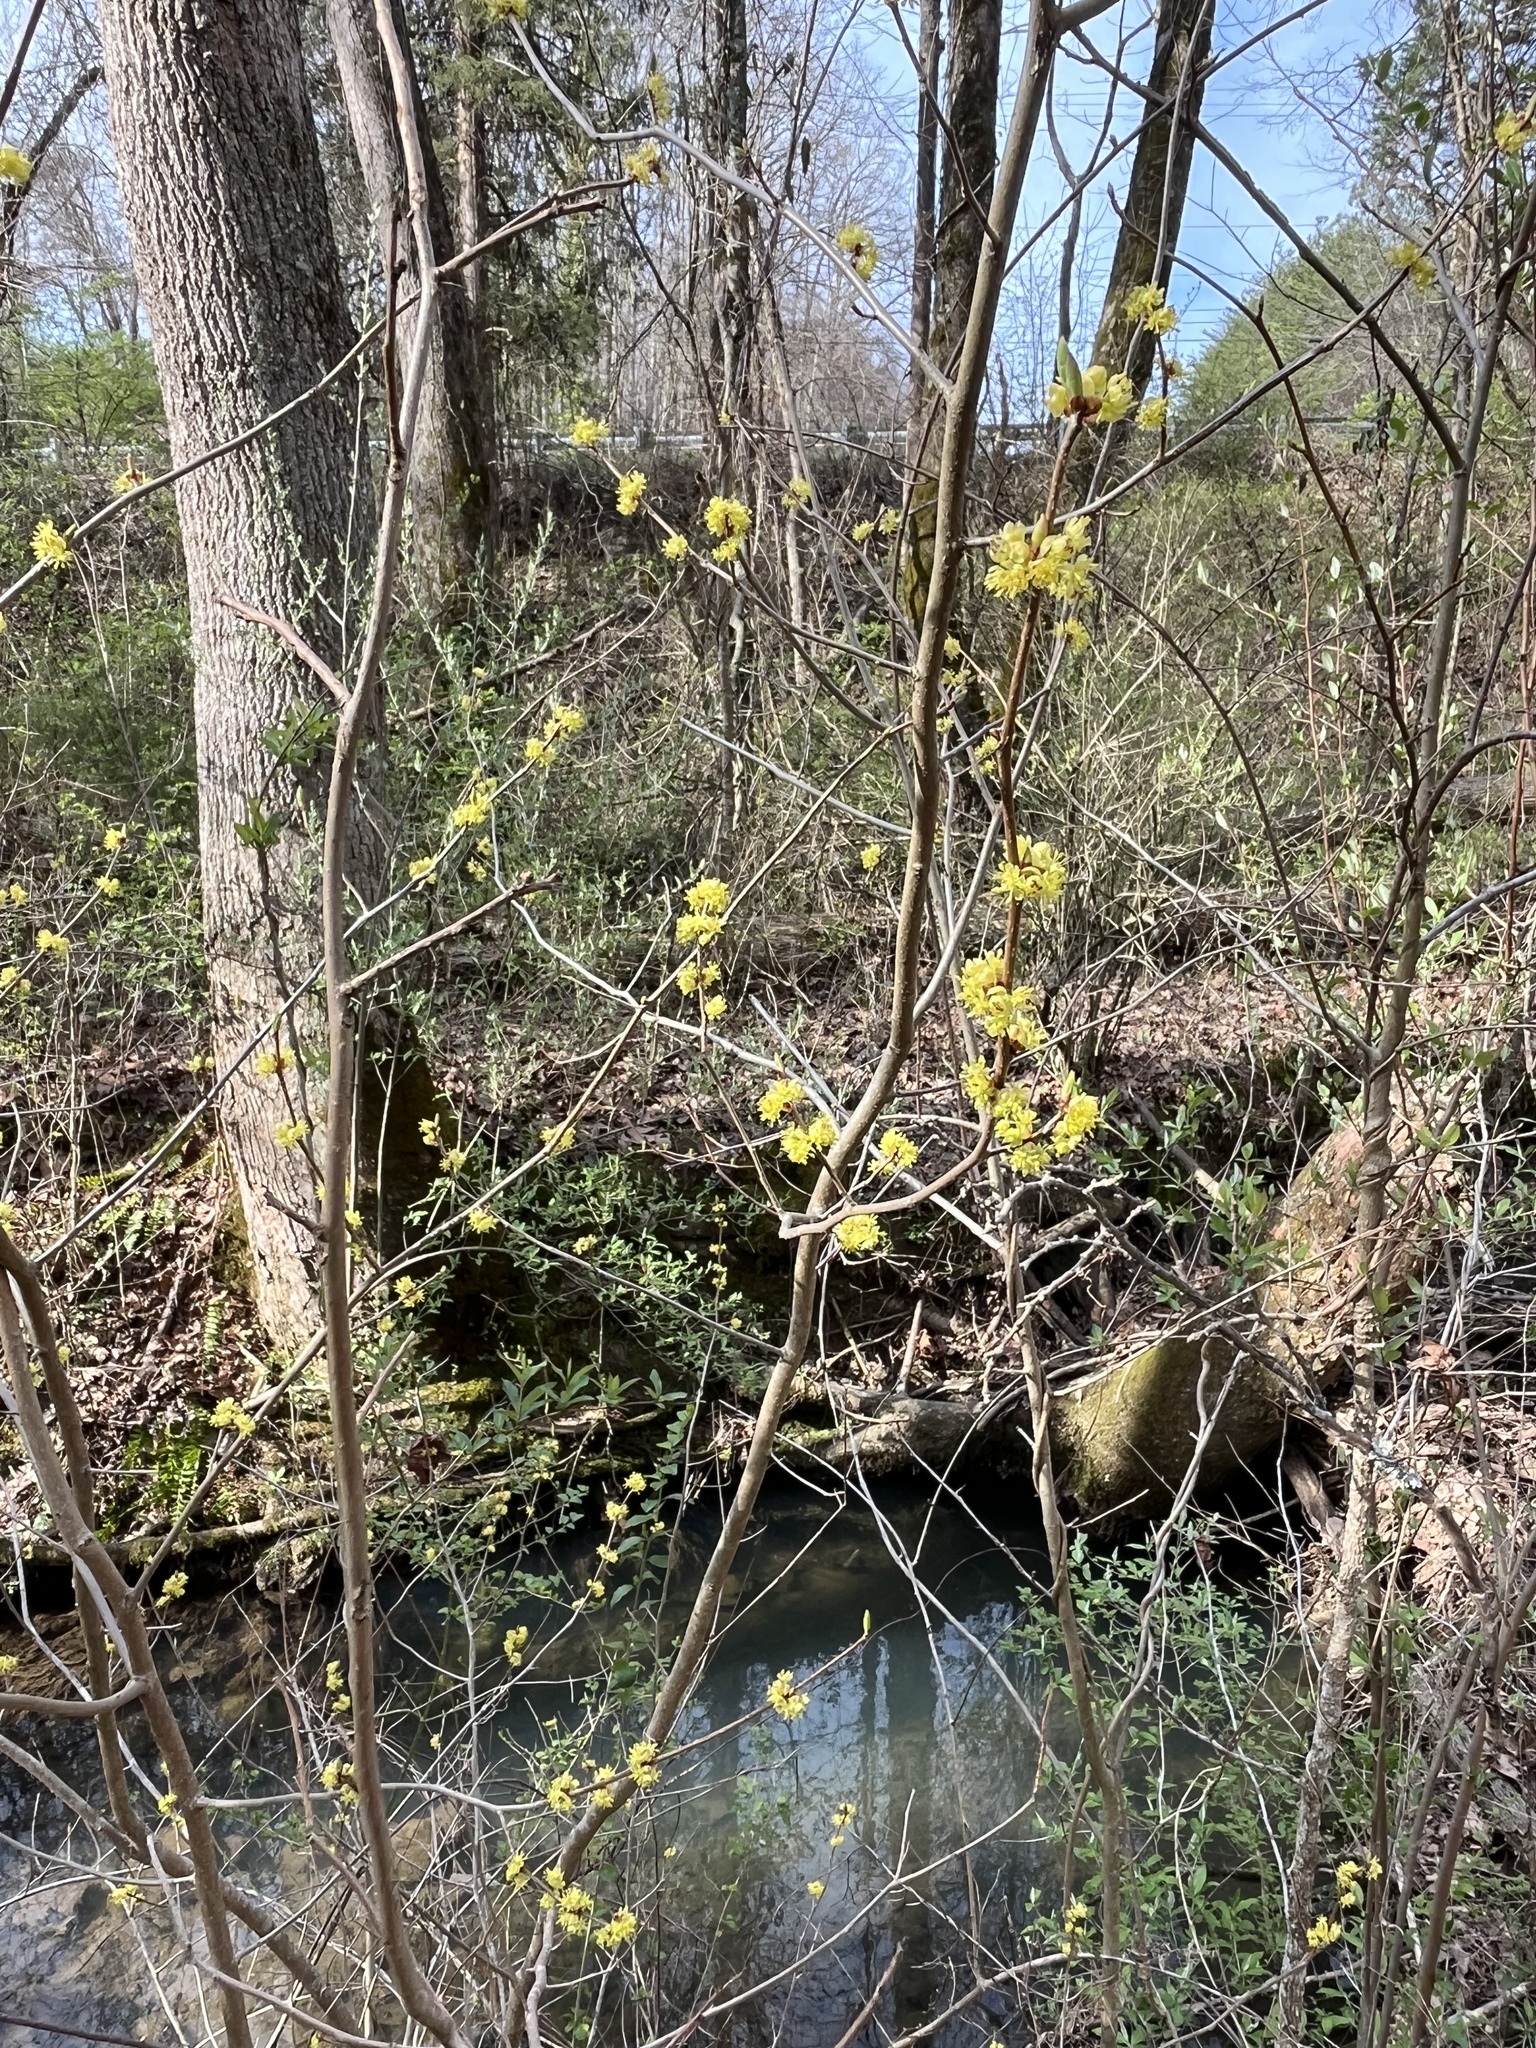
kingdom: Plantae
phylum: Tracheophyta
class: Magnoliopsida
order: Laurales
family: Lauraceae
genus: Lindera
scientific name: Lindera benzoin
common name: Spicebush
